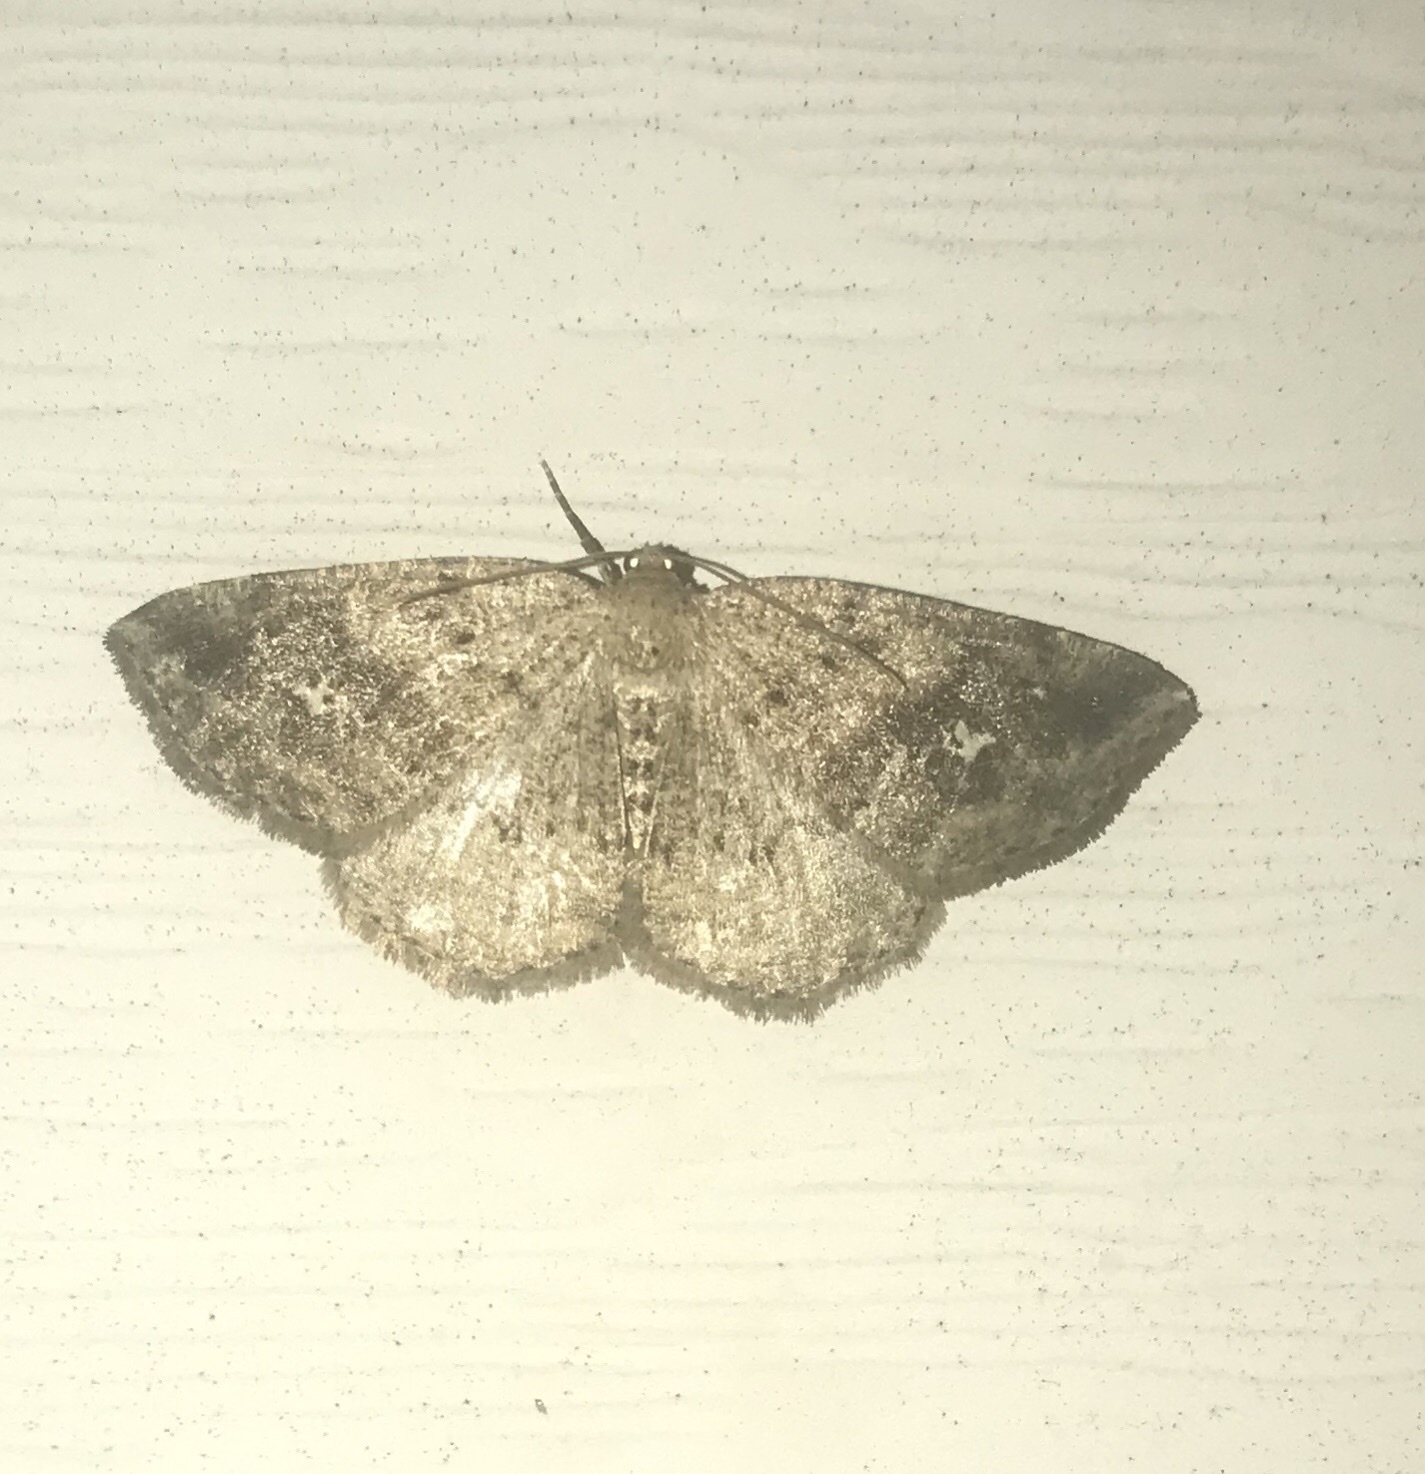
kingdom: Animalia
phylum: Arthropoda
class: Insecta
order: Lepidoptera
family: Geometridae
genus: Homochlodes
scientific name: Homochlodes fritillaria
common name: Pale homochlodes
